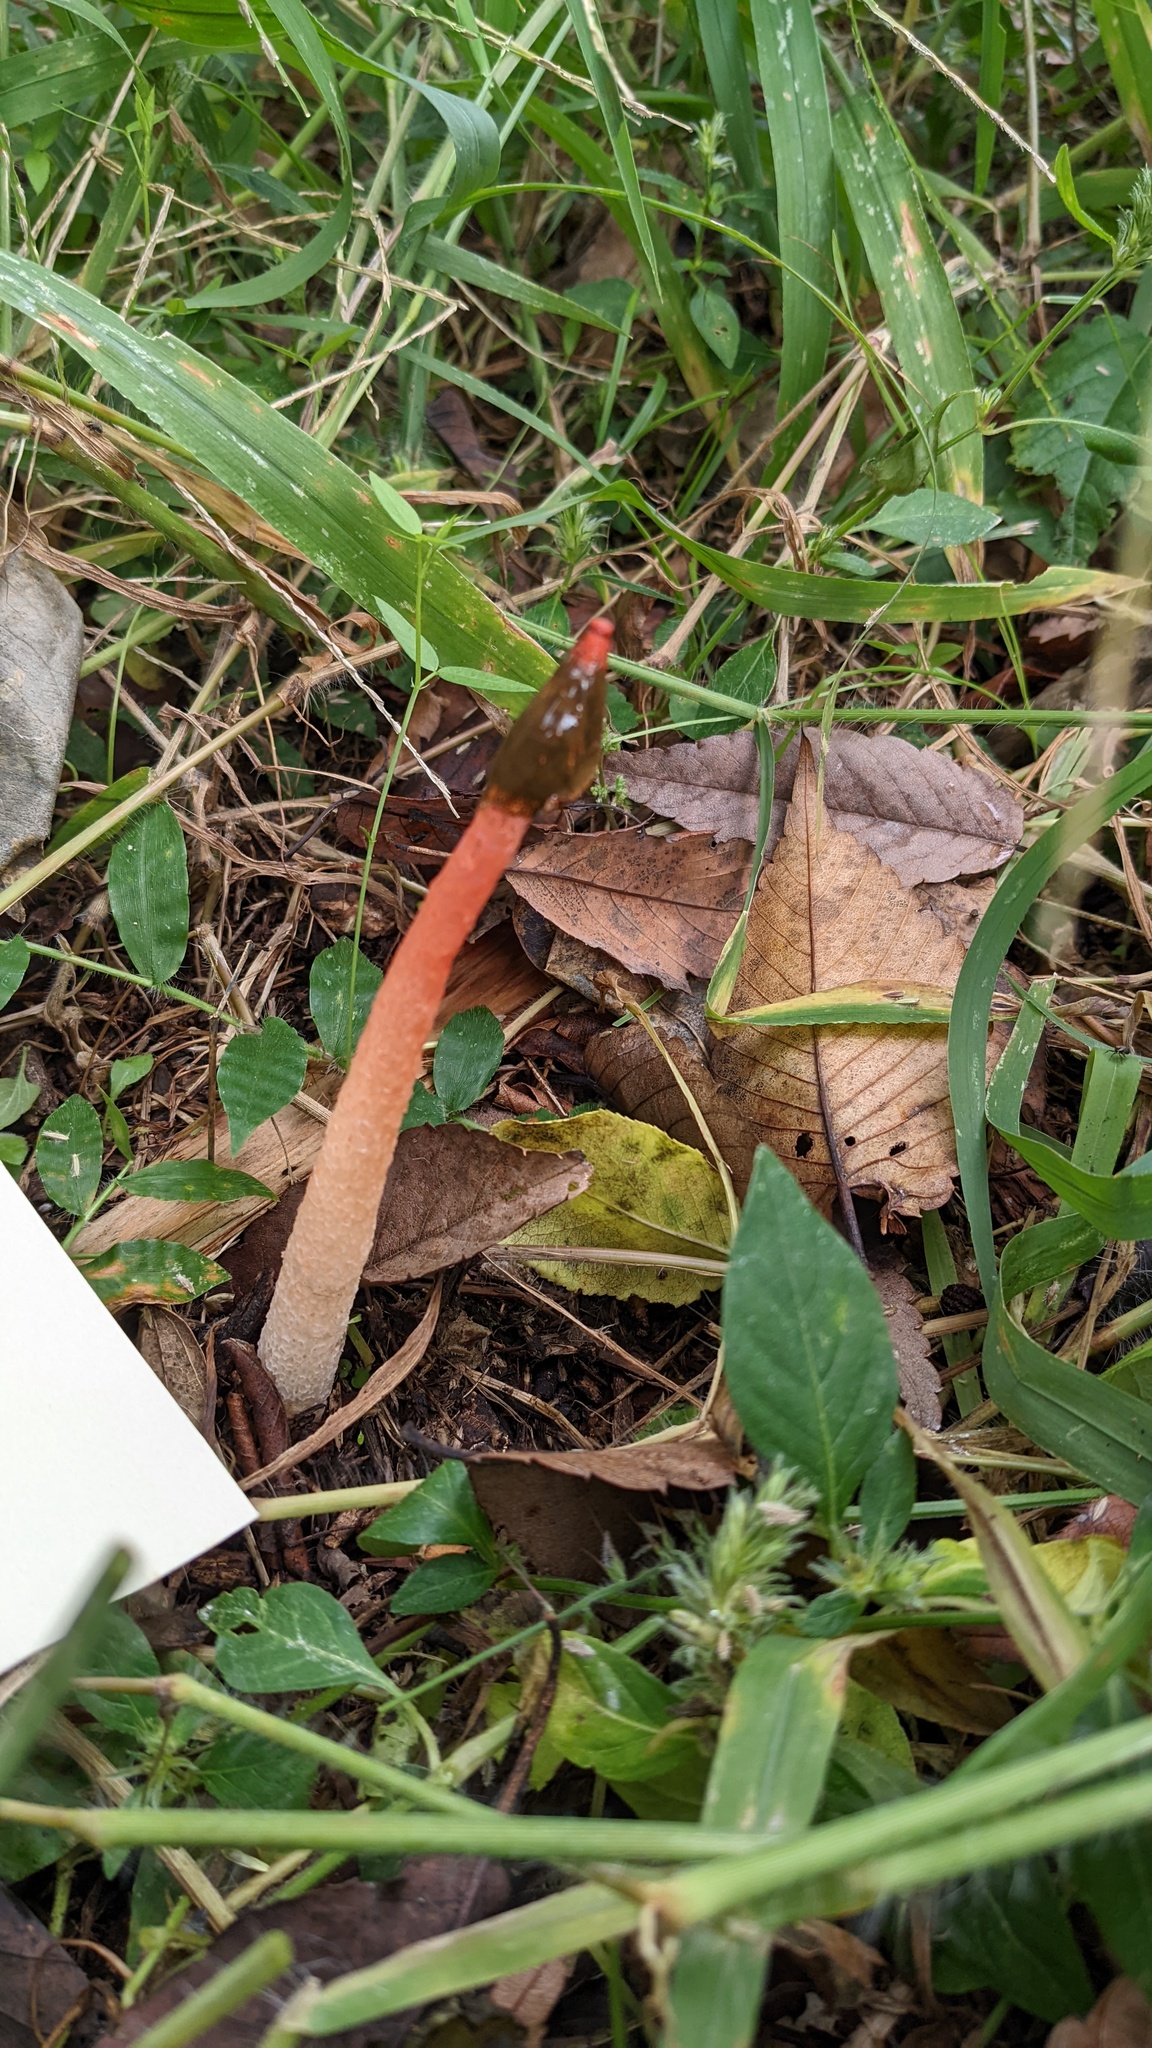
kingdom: Fungi
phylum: Basidiomycota
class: Agaricomycetes
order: Phallales
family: Phallaceae
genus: Phallus
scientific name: Phallus rugulosus
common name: Wrinkly stinkhorn
